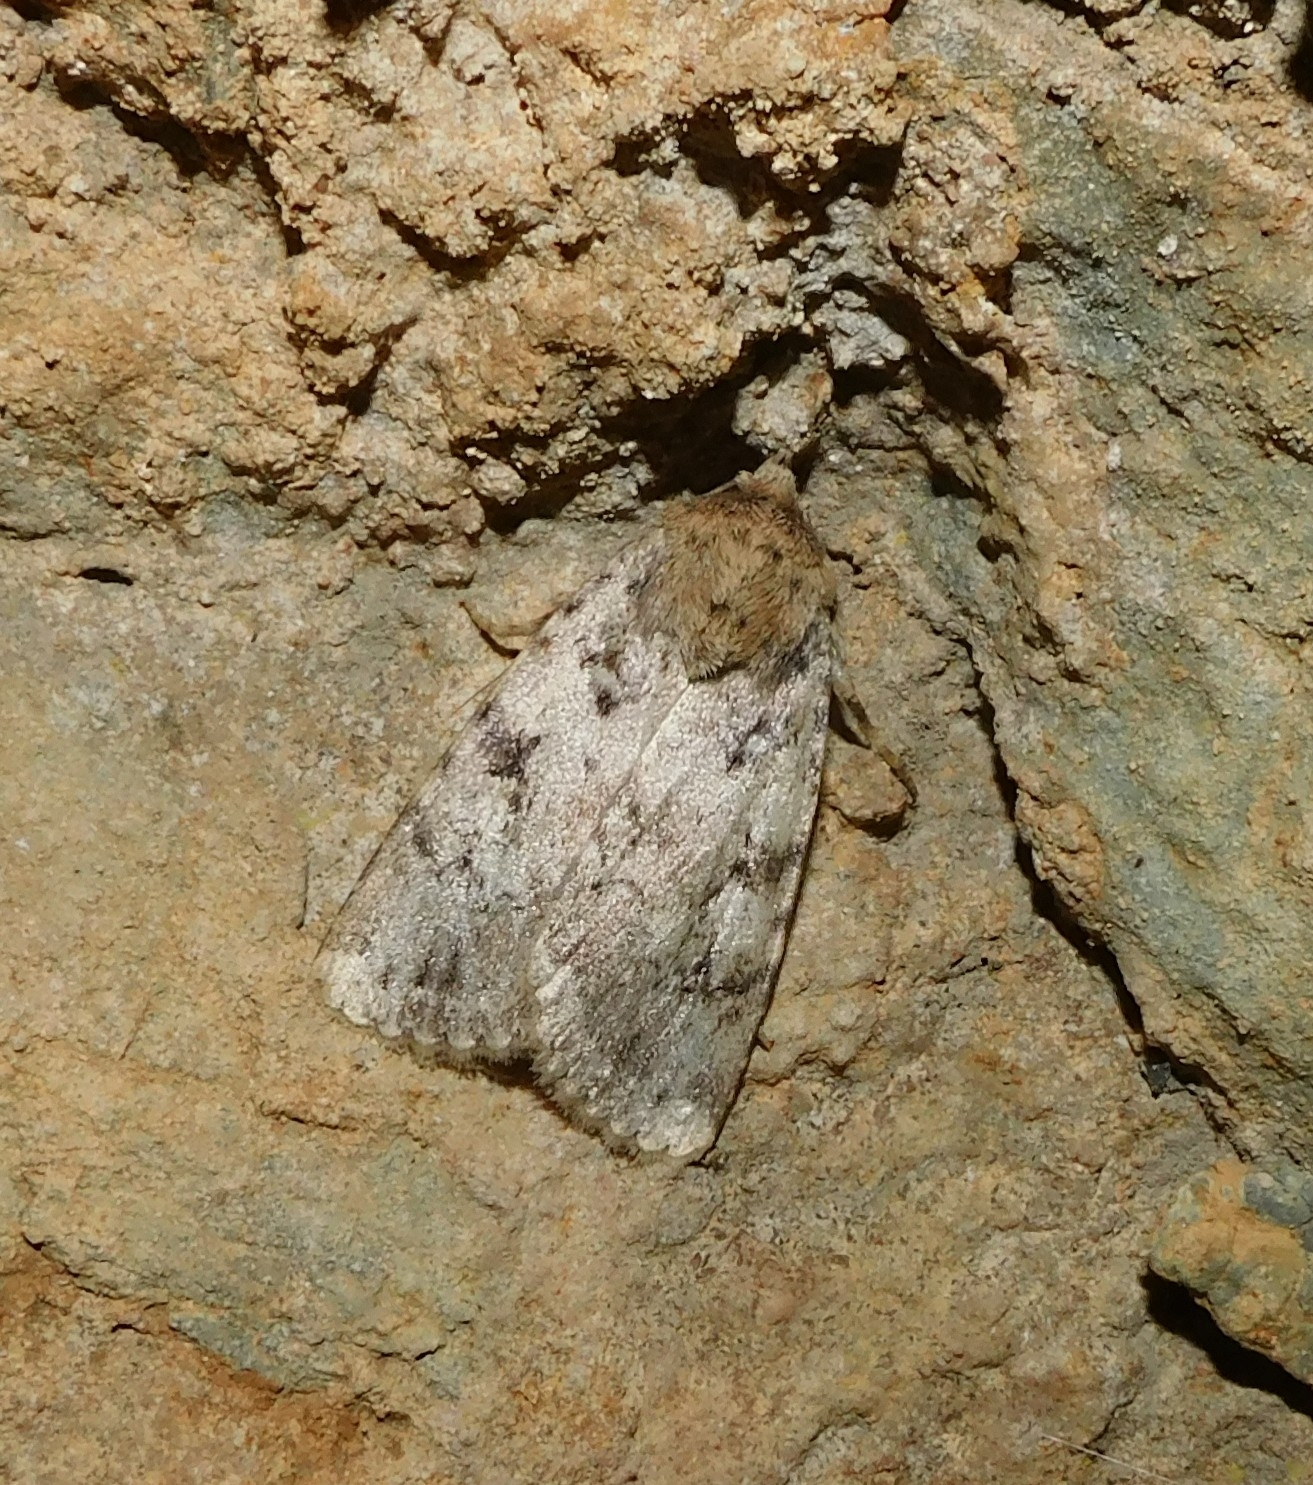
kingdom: Animalia
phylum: Arthropoda
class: Insecta
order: Lepidoptera
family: Noctuidae
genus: Amphipyra
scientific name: Amphipyra effusa
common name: Landguard ochre
